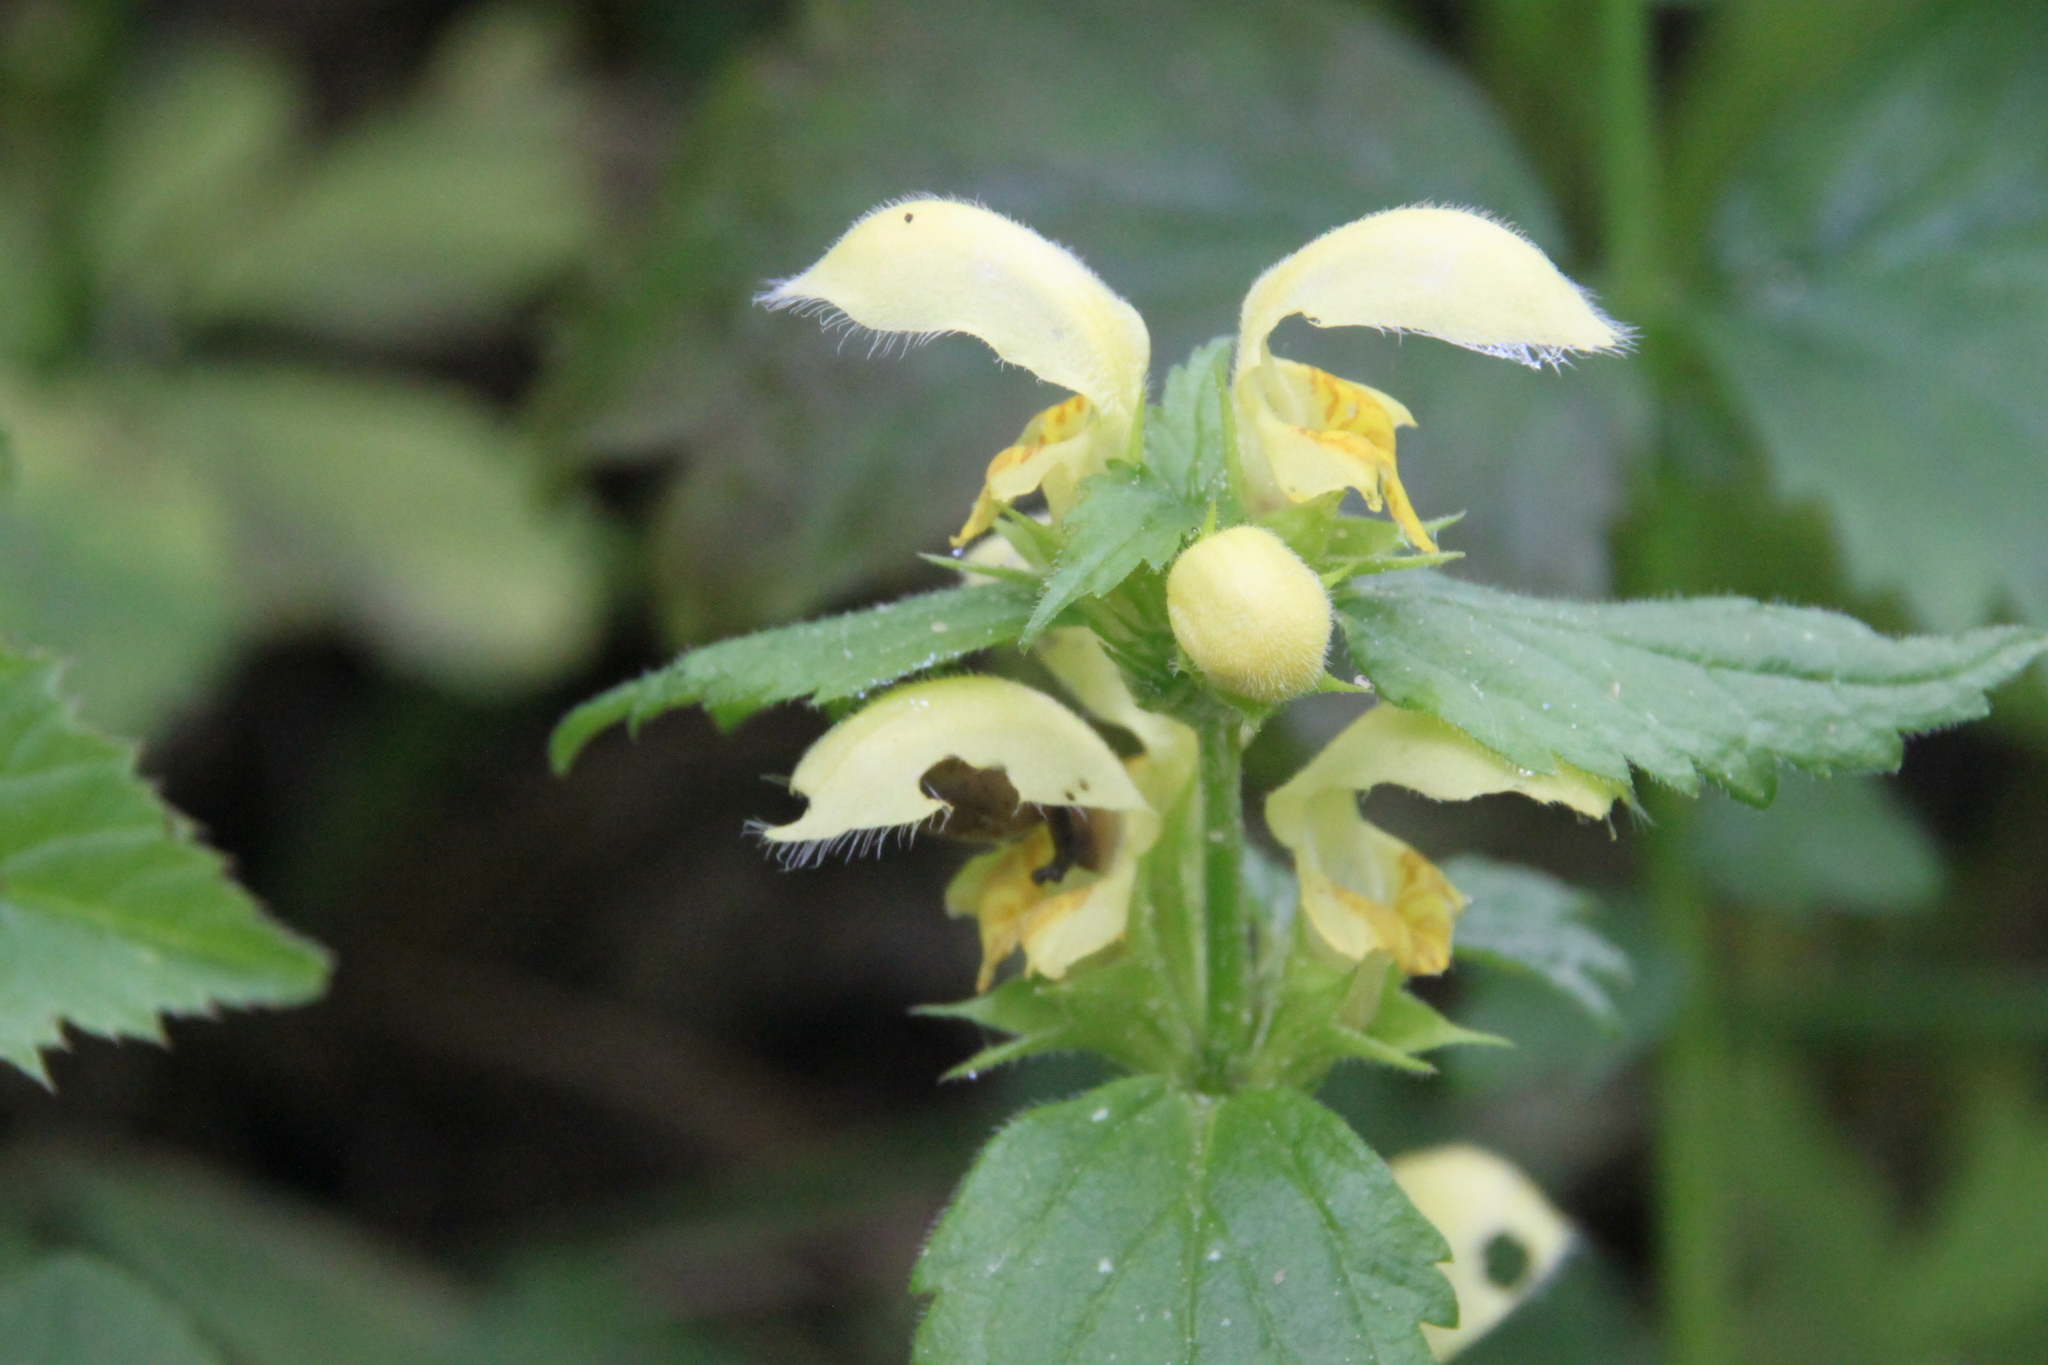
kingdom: Plantae
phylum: Tracheophyta
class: Magnoliopsida
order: Lamiales
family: Lamiaceae
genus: Lamium
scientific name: Lamium galeobdolon
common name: Yellow archangel
